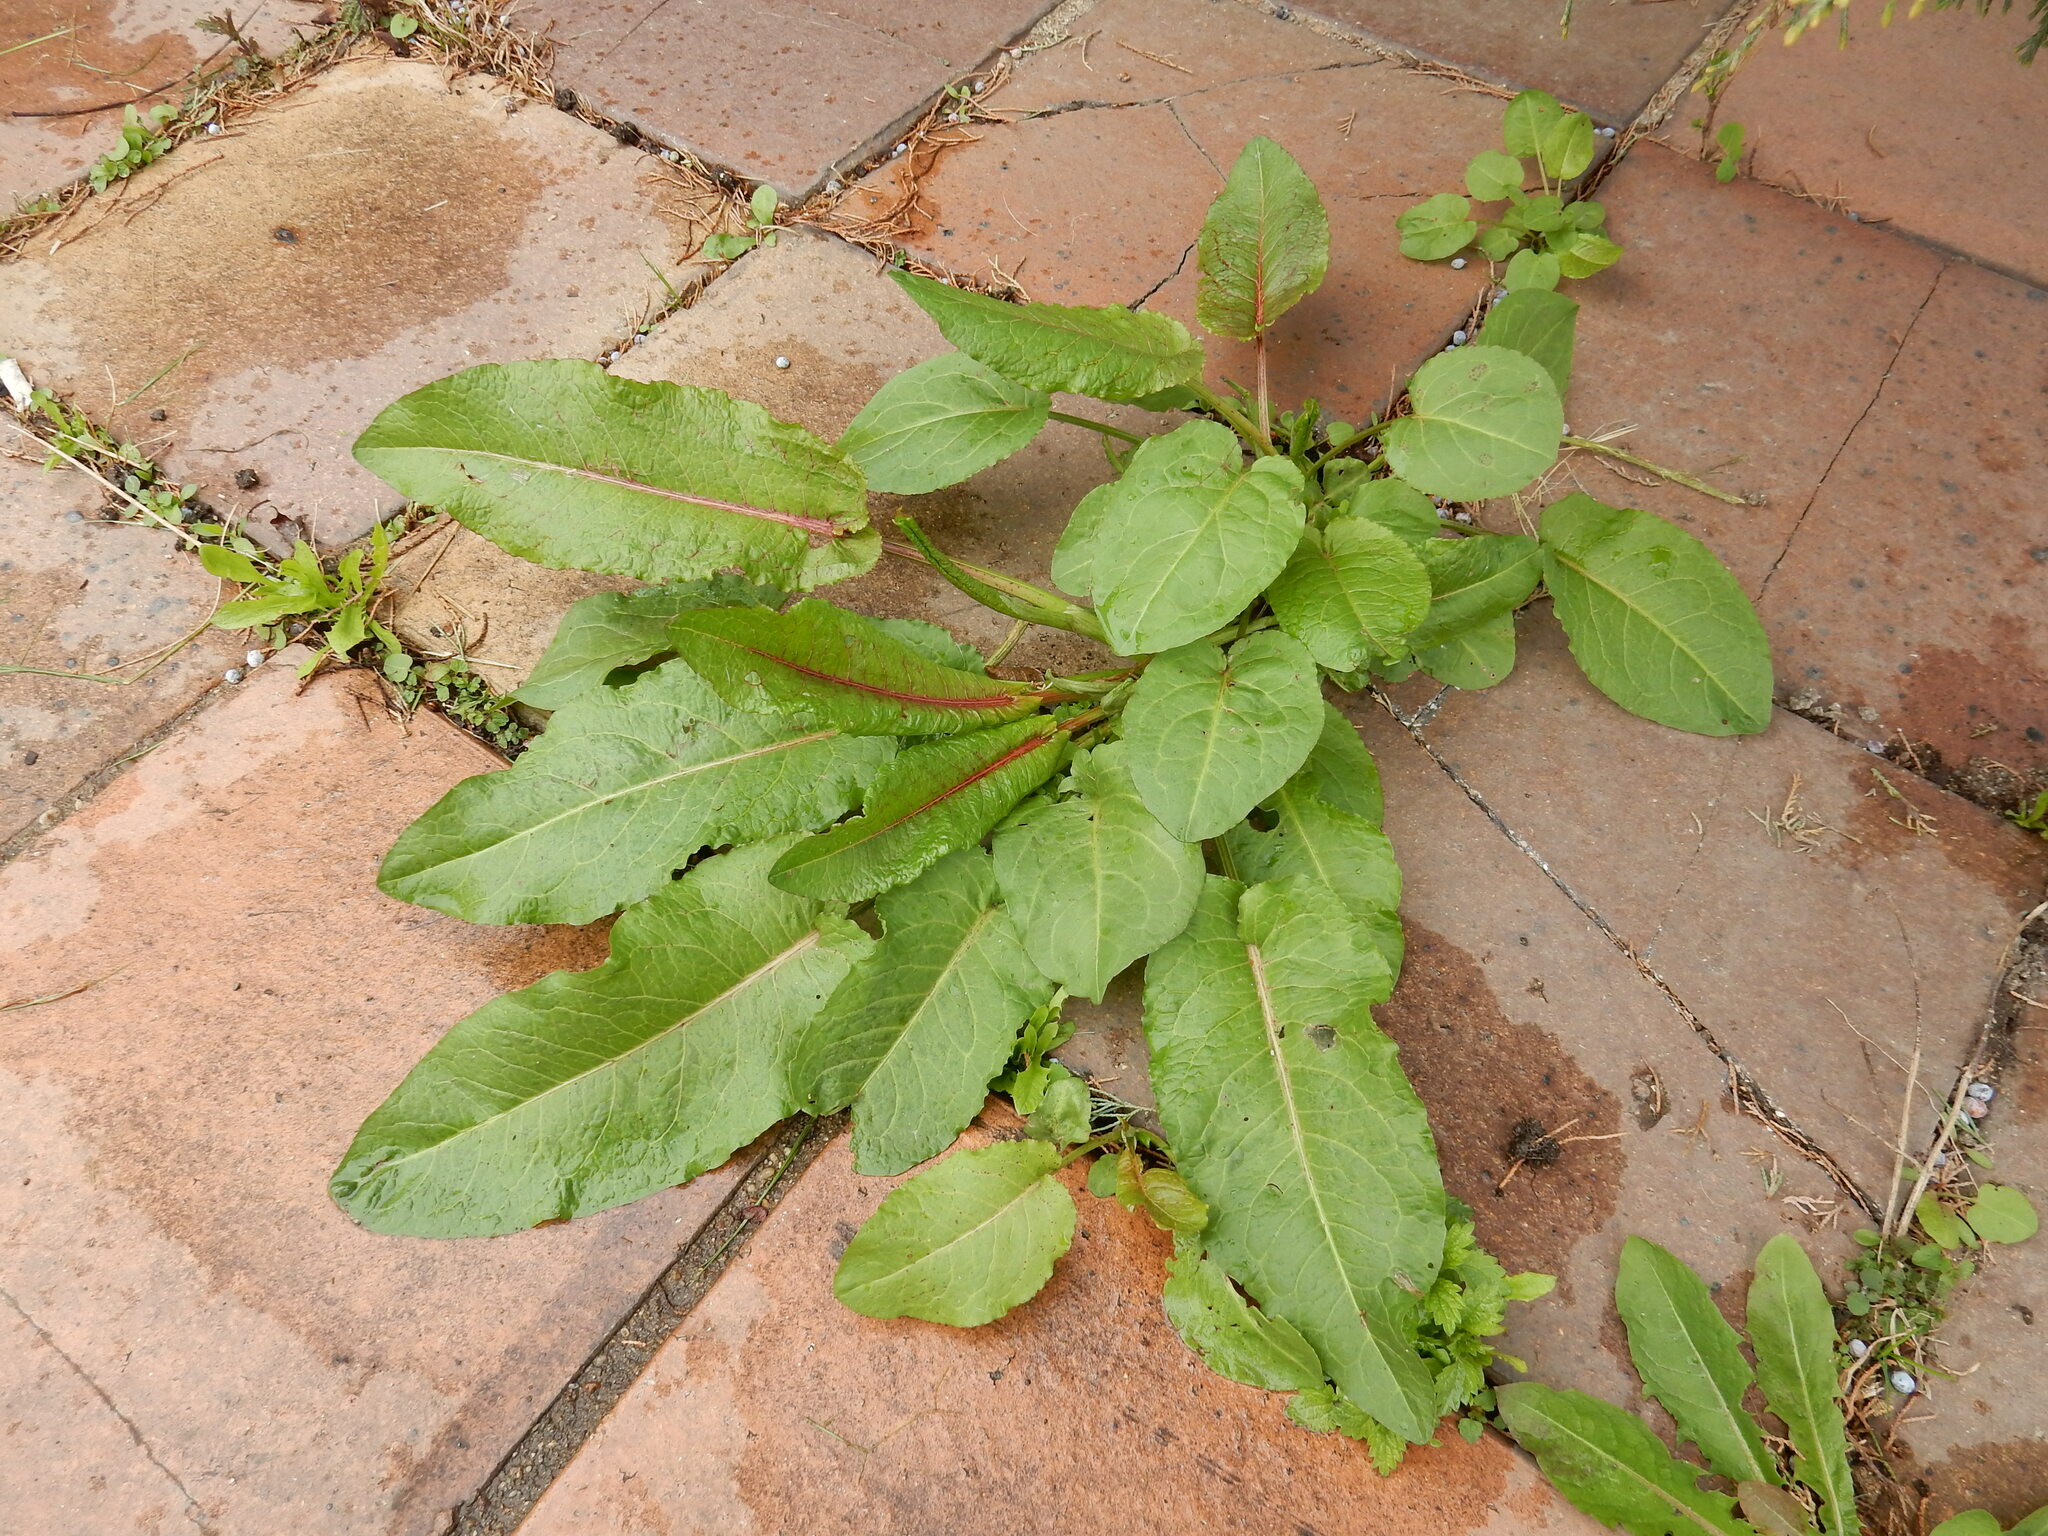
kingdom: Plantae
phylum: Tracheophyta
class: Magnoliopsida
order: Caryophyllales
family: Polygonaceae
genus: Rumex
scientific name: Rumex obtusifolius
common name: Bitter dock
